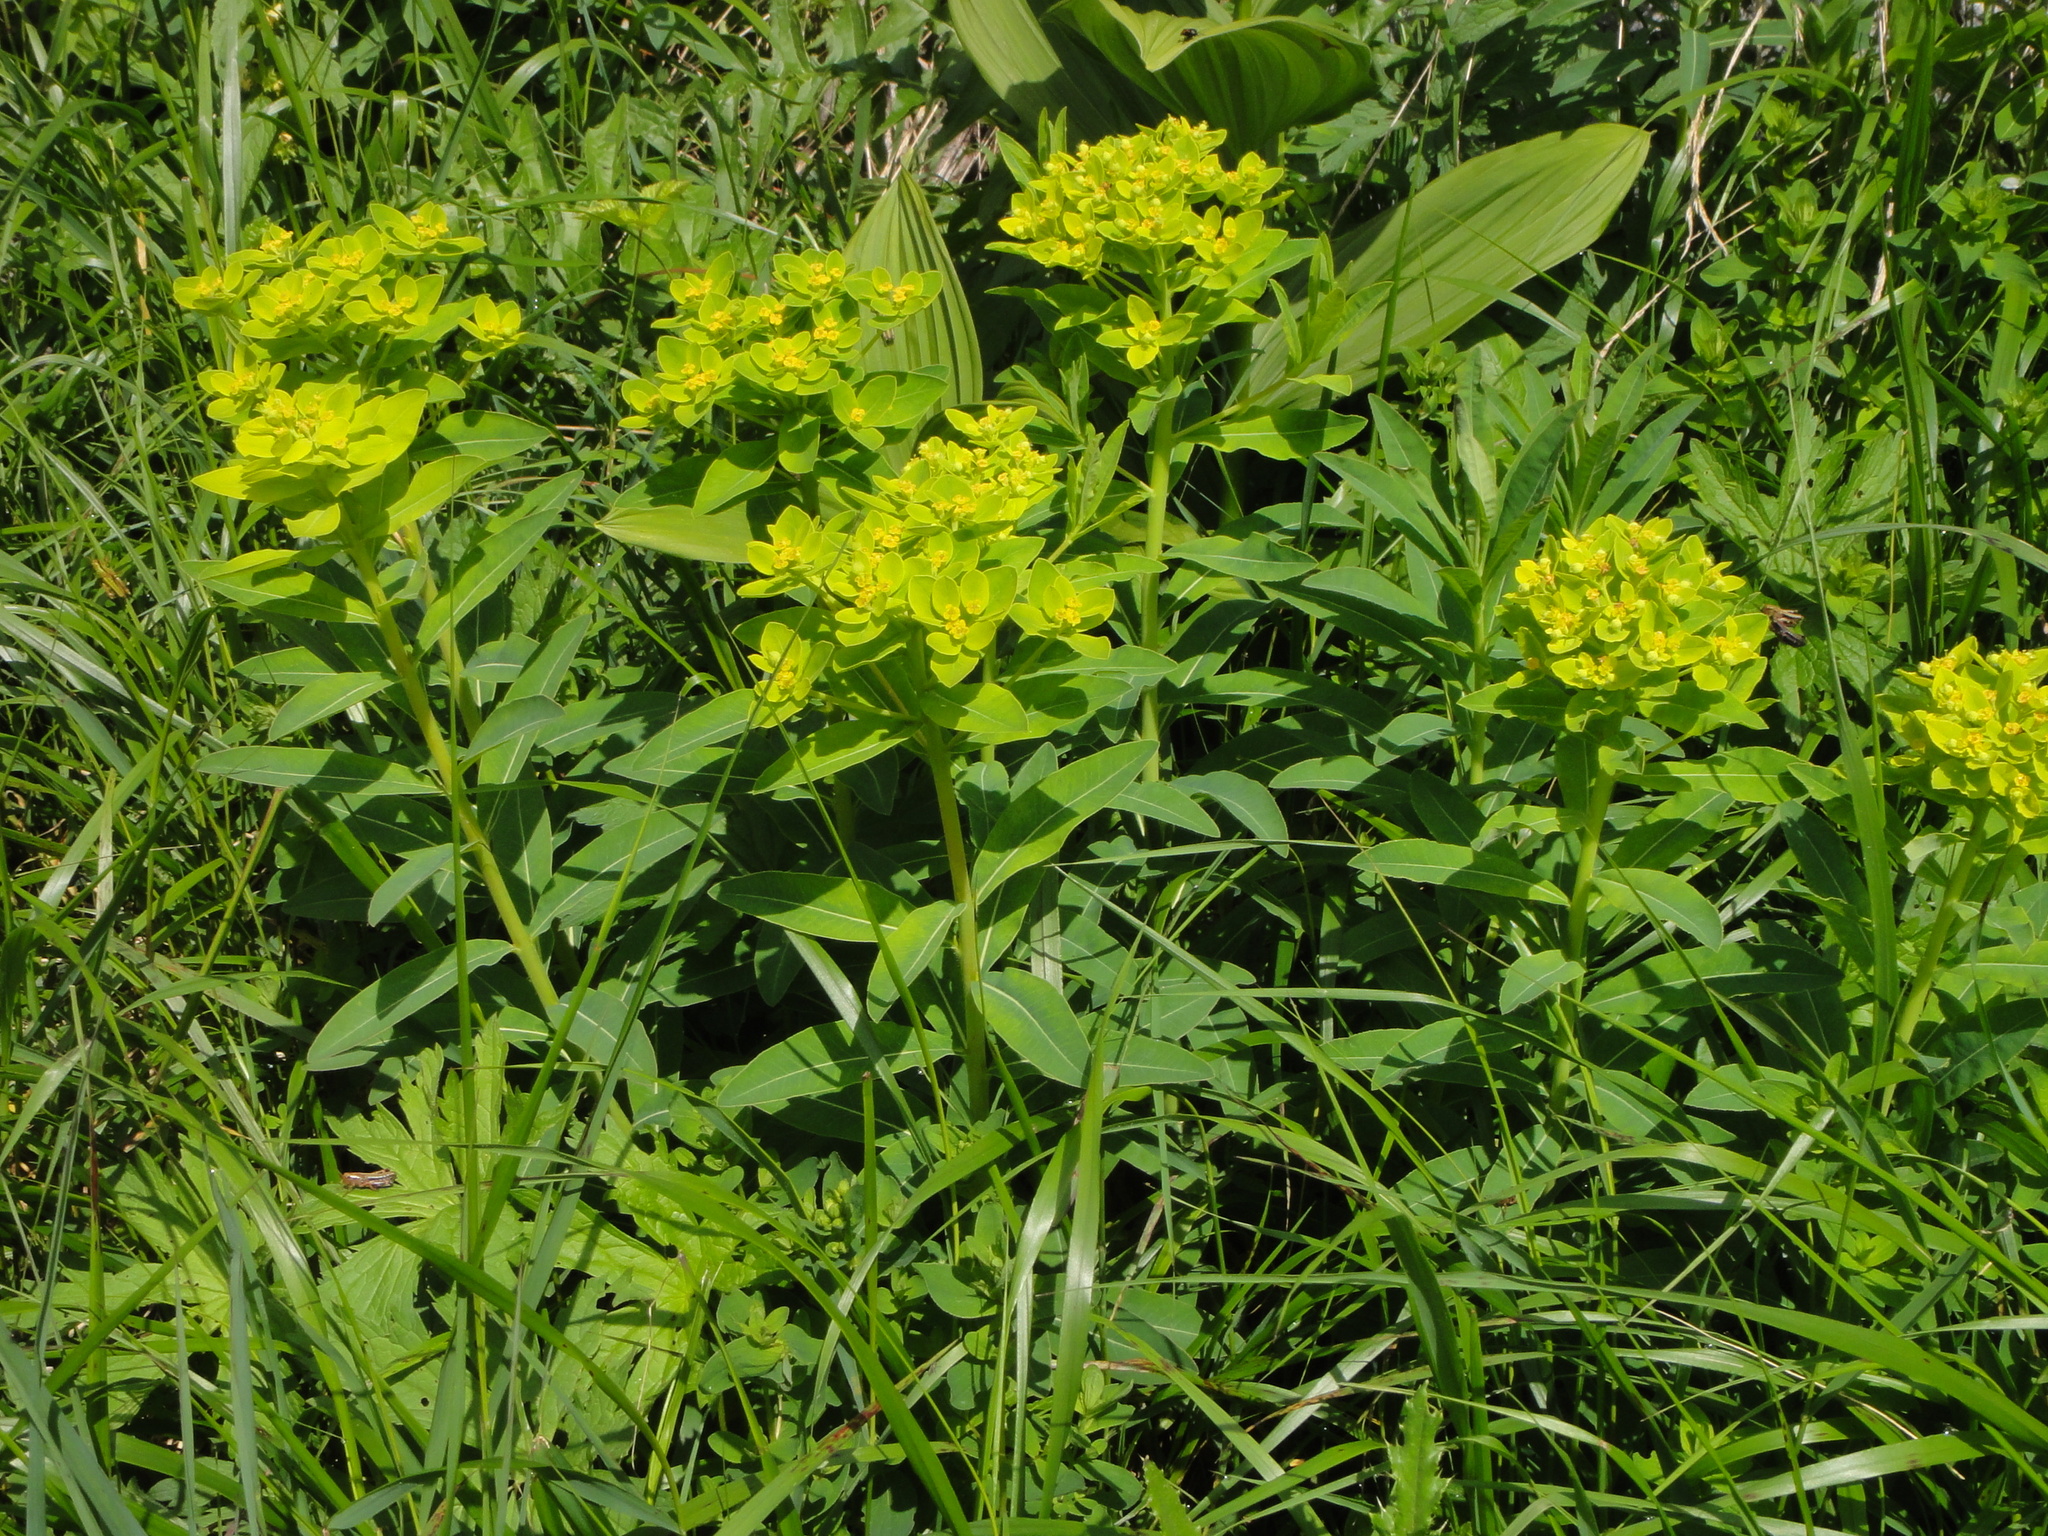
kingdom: Plantae
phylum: Tracheophyta
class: Magnoliopsida
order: Malpighiales
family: Euphorbiaceae
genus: Euphorbia
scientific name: Euphorbia austriaca
